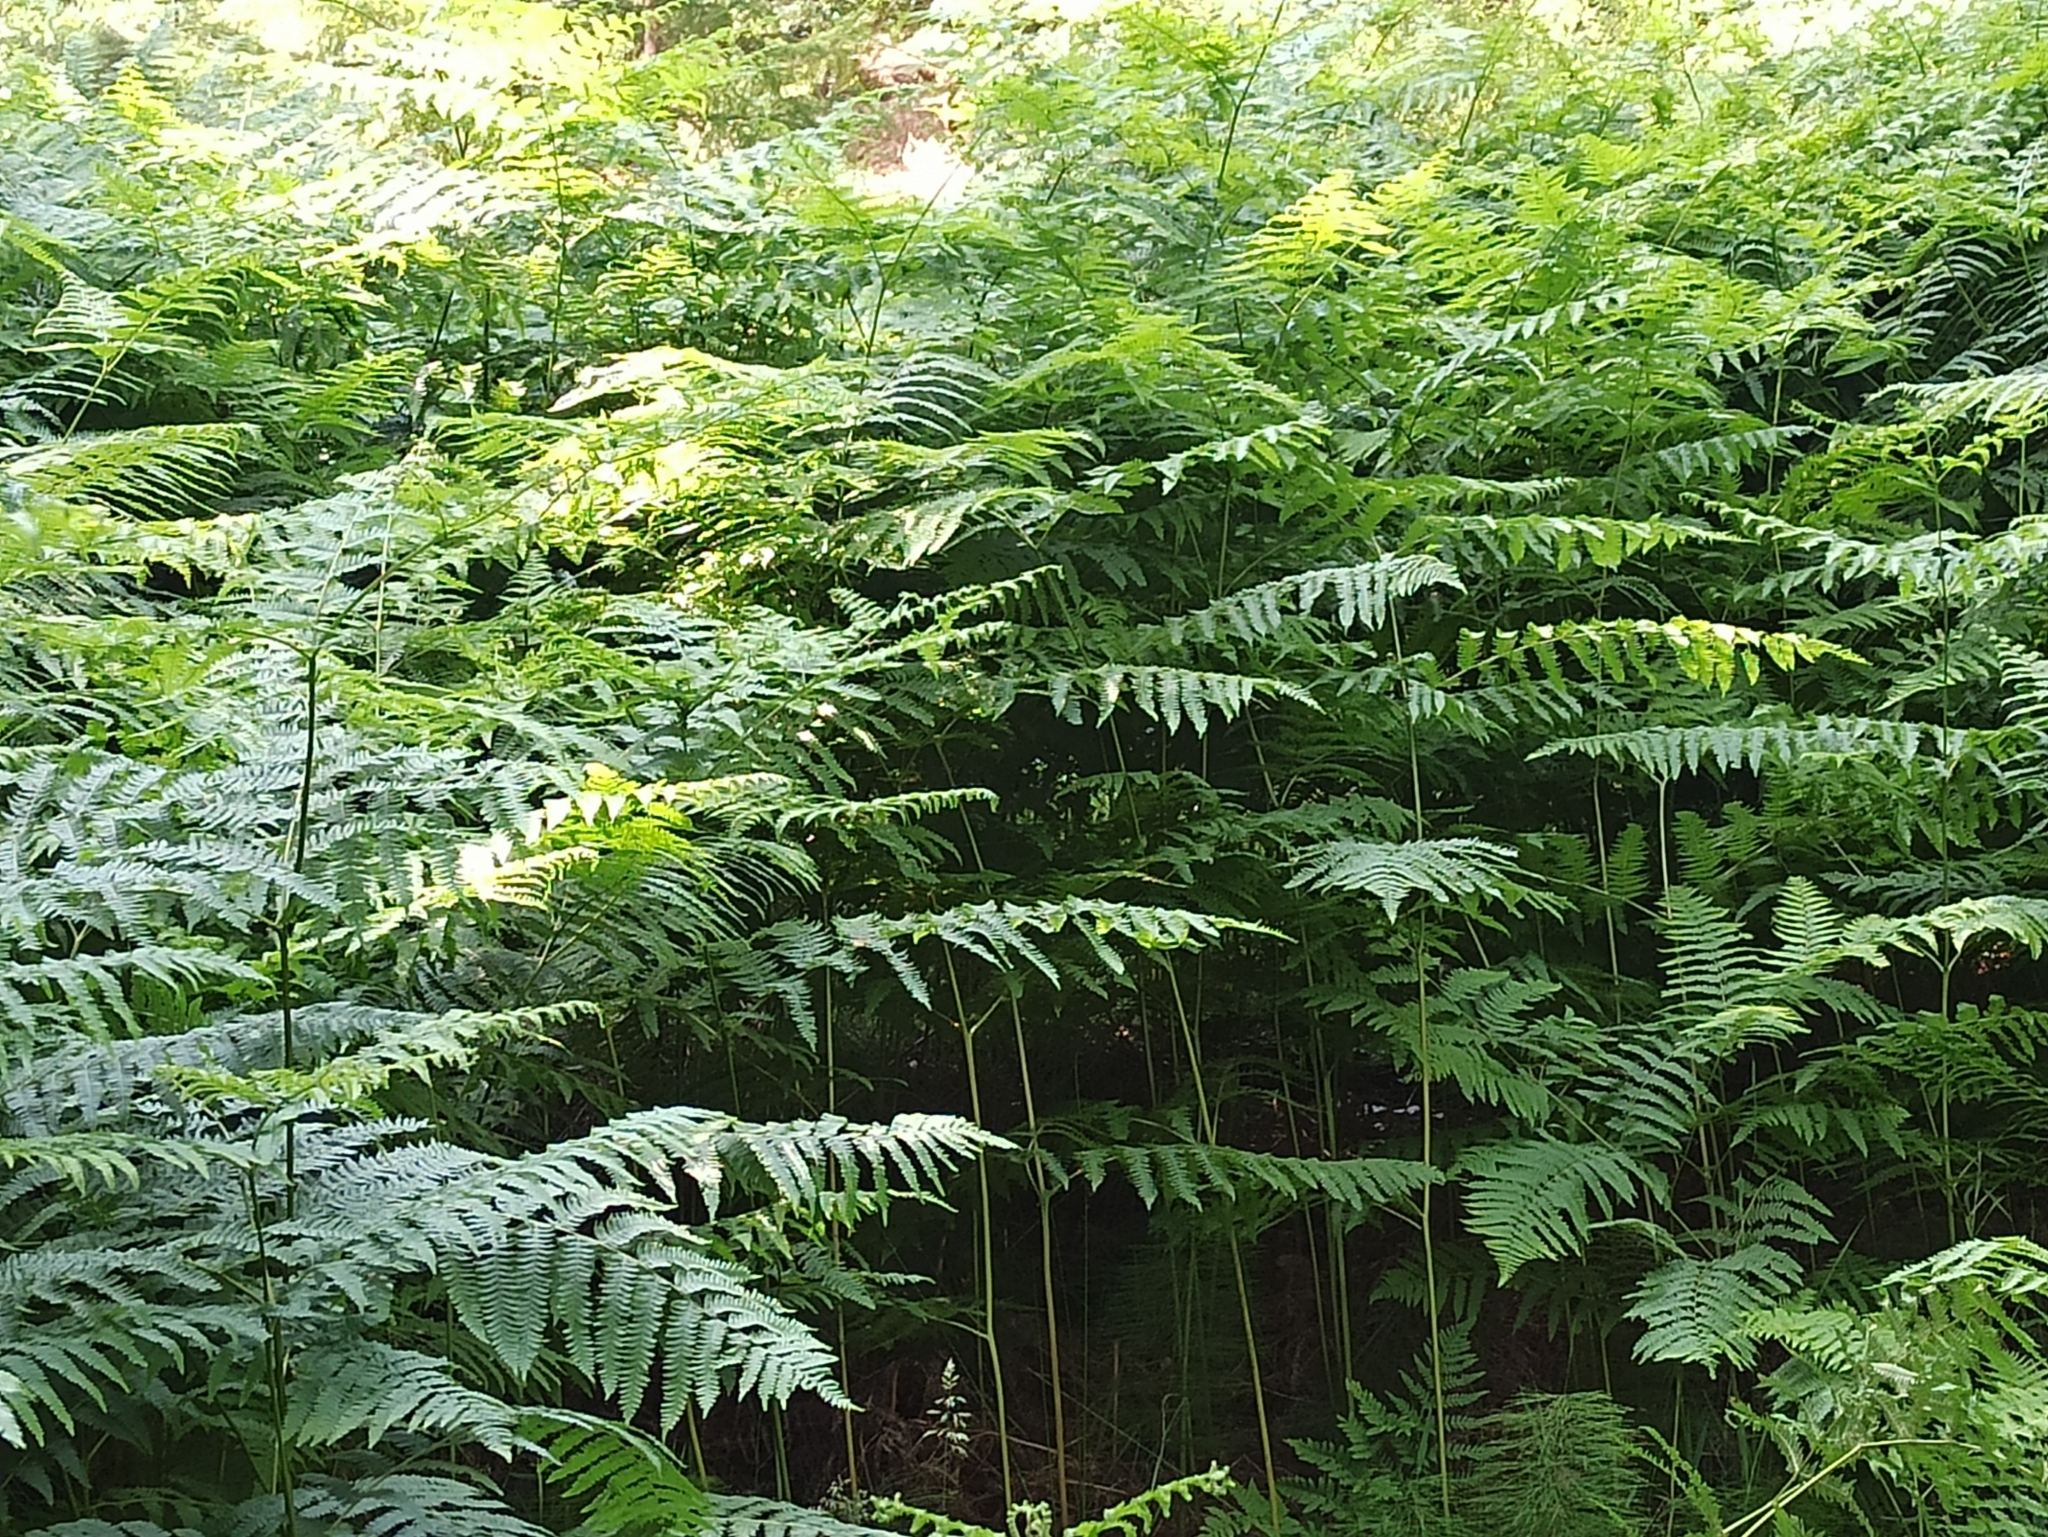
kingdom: Plantae
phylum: Tracheophyta
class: Polypodiopsida
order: Polypodiales
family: Dennstaedtiaceae
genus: Pteridium
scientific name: Pteridium aquilinum
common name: Bracken
